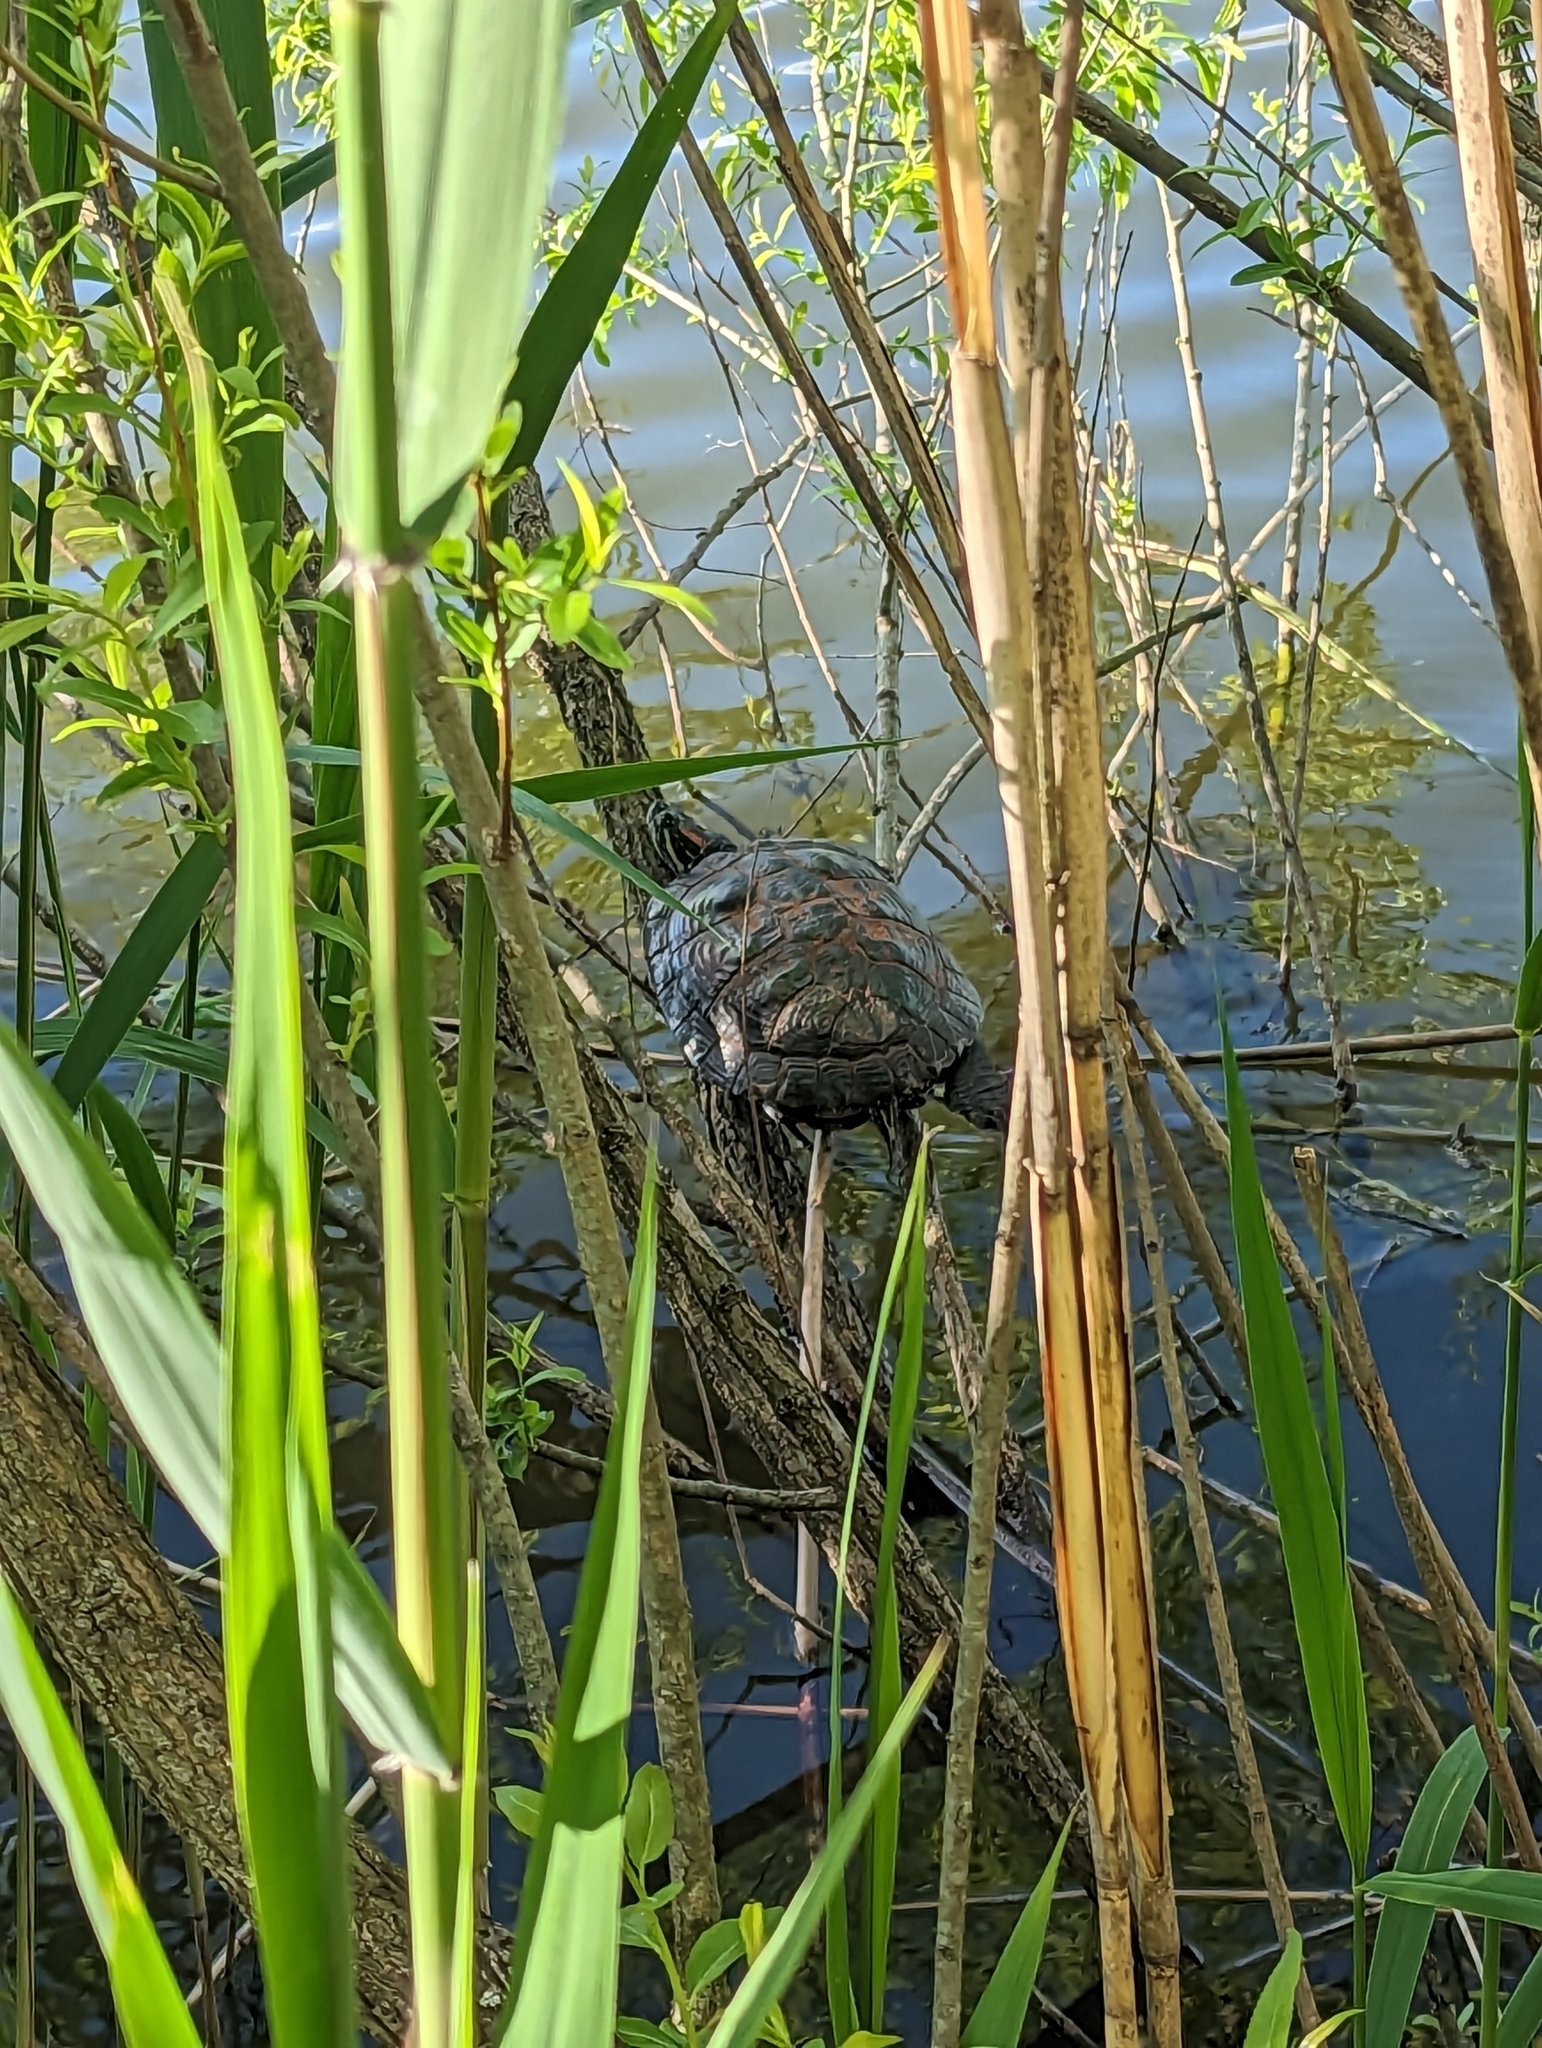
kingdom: Animalia
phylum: Chordata
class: Testudines
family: Emydidae
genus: Trachemys
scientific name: Trachemys scripta
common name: Slider
